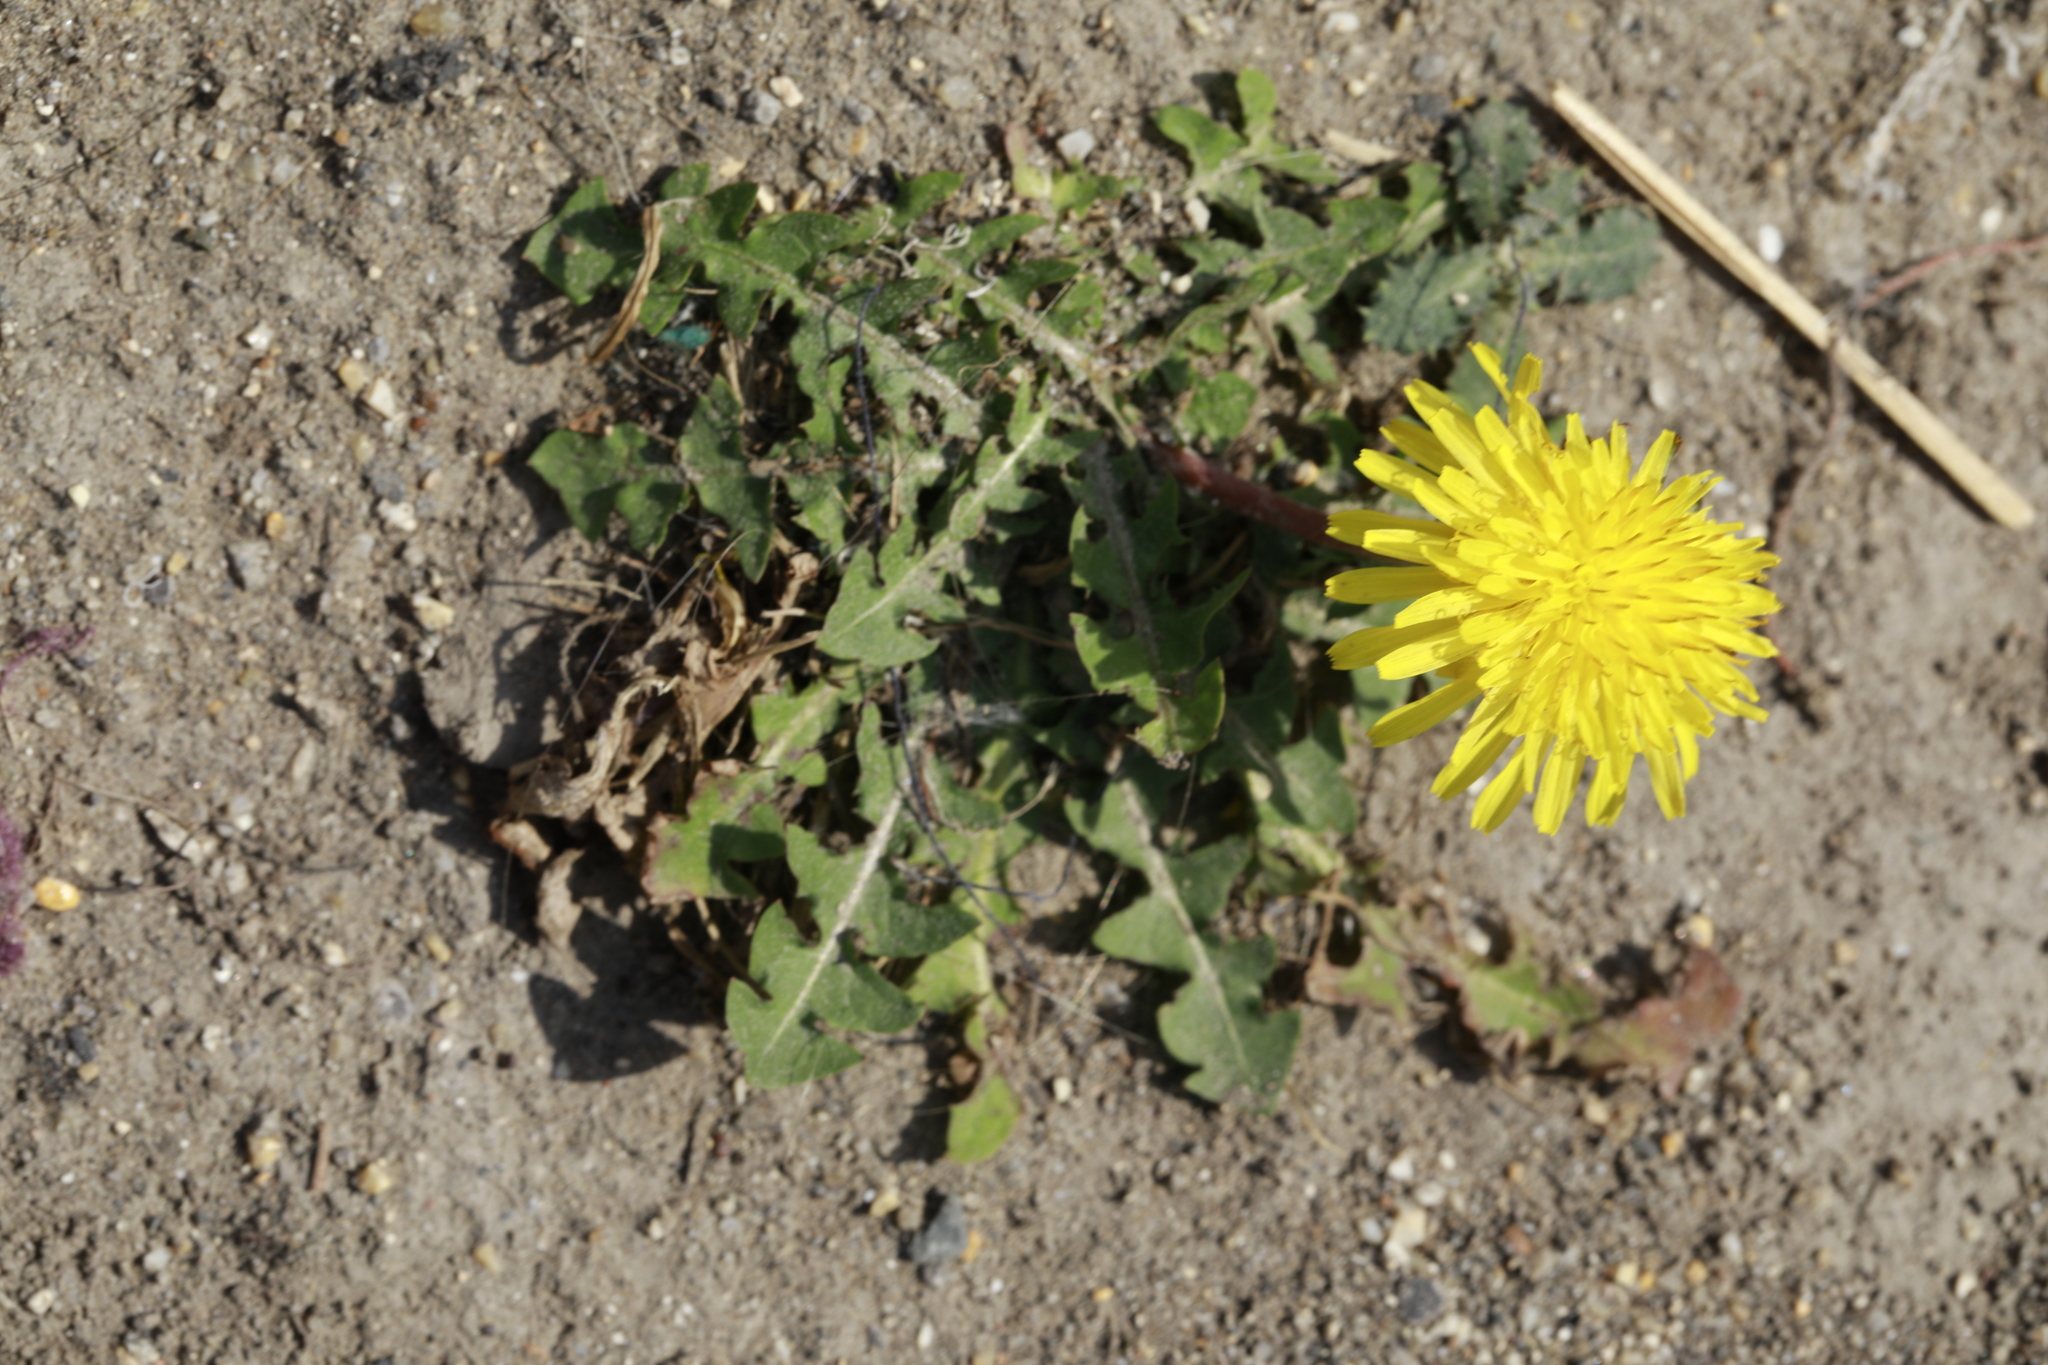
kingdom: Plantae
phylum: Tracheophyta
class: Magnoliopsida
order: Asterales
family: Asteraceae
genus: Taraxacum
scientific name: Taraxacum officinale
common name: Common dandelion
